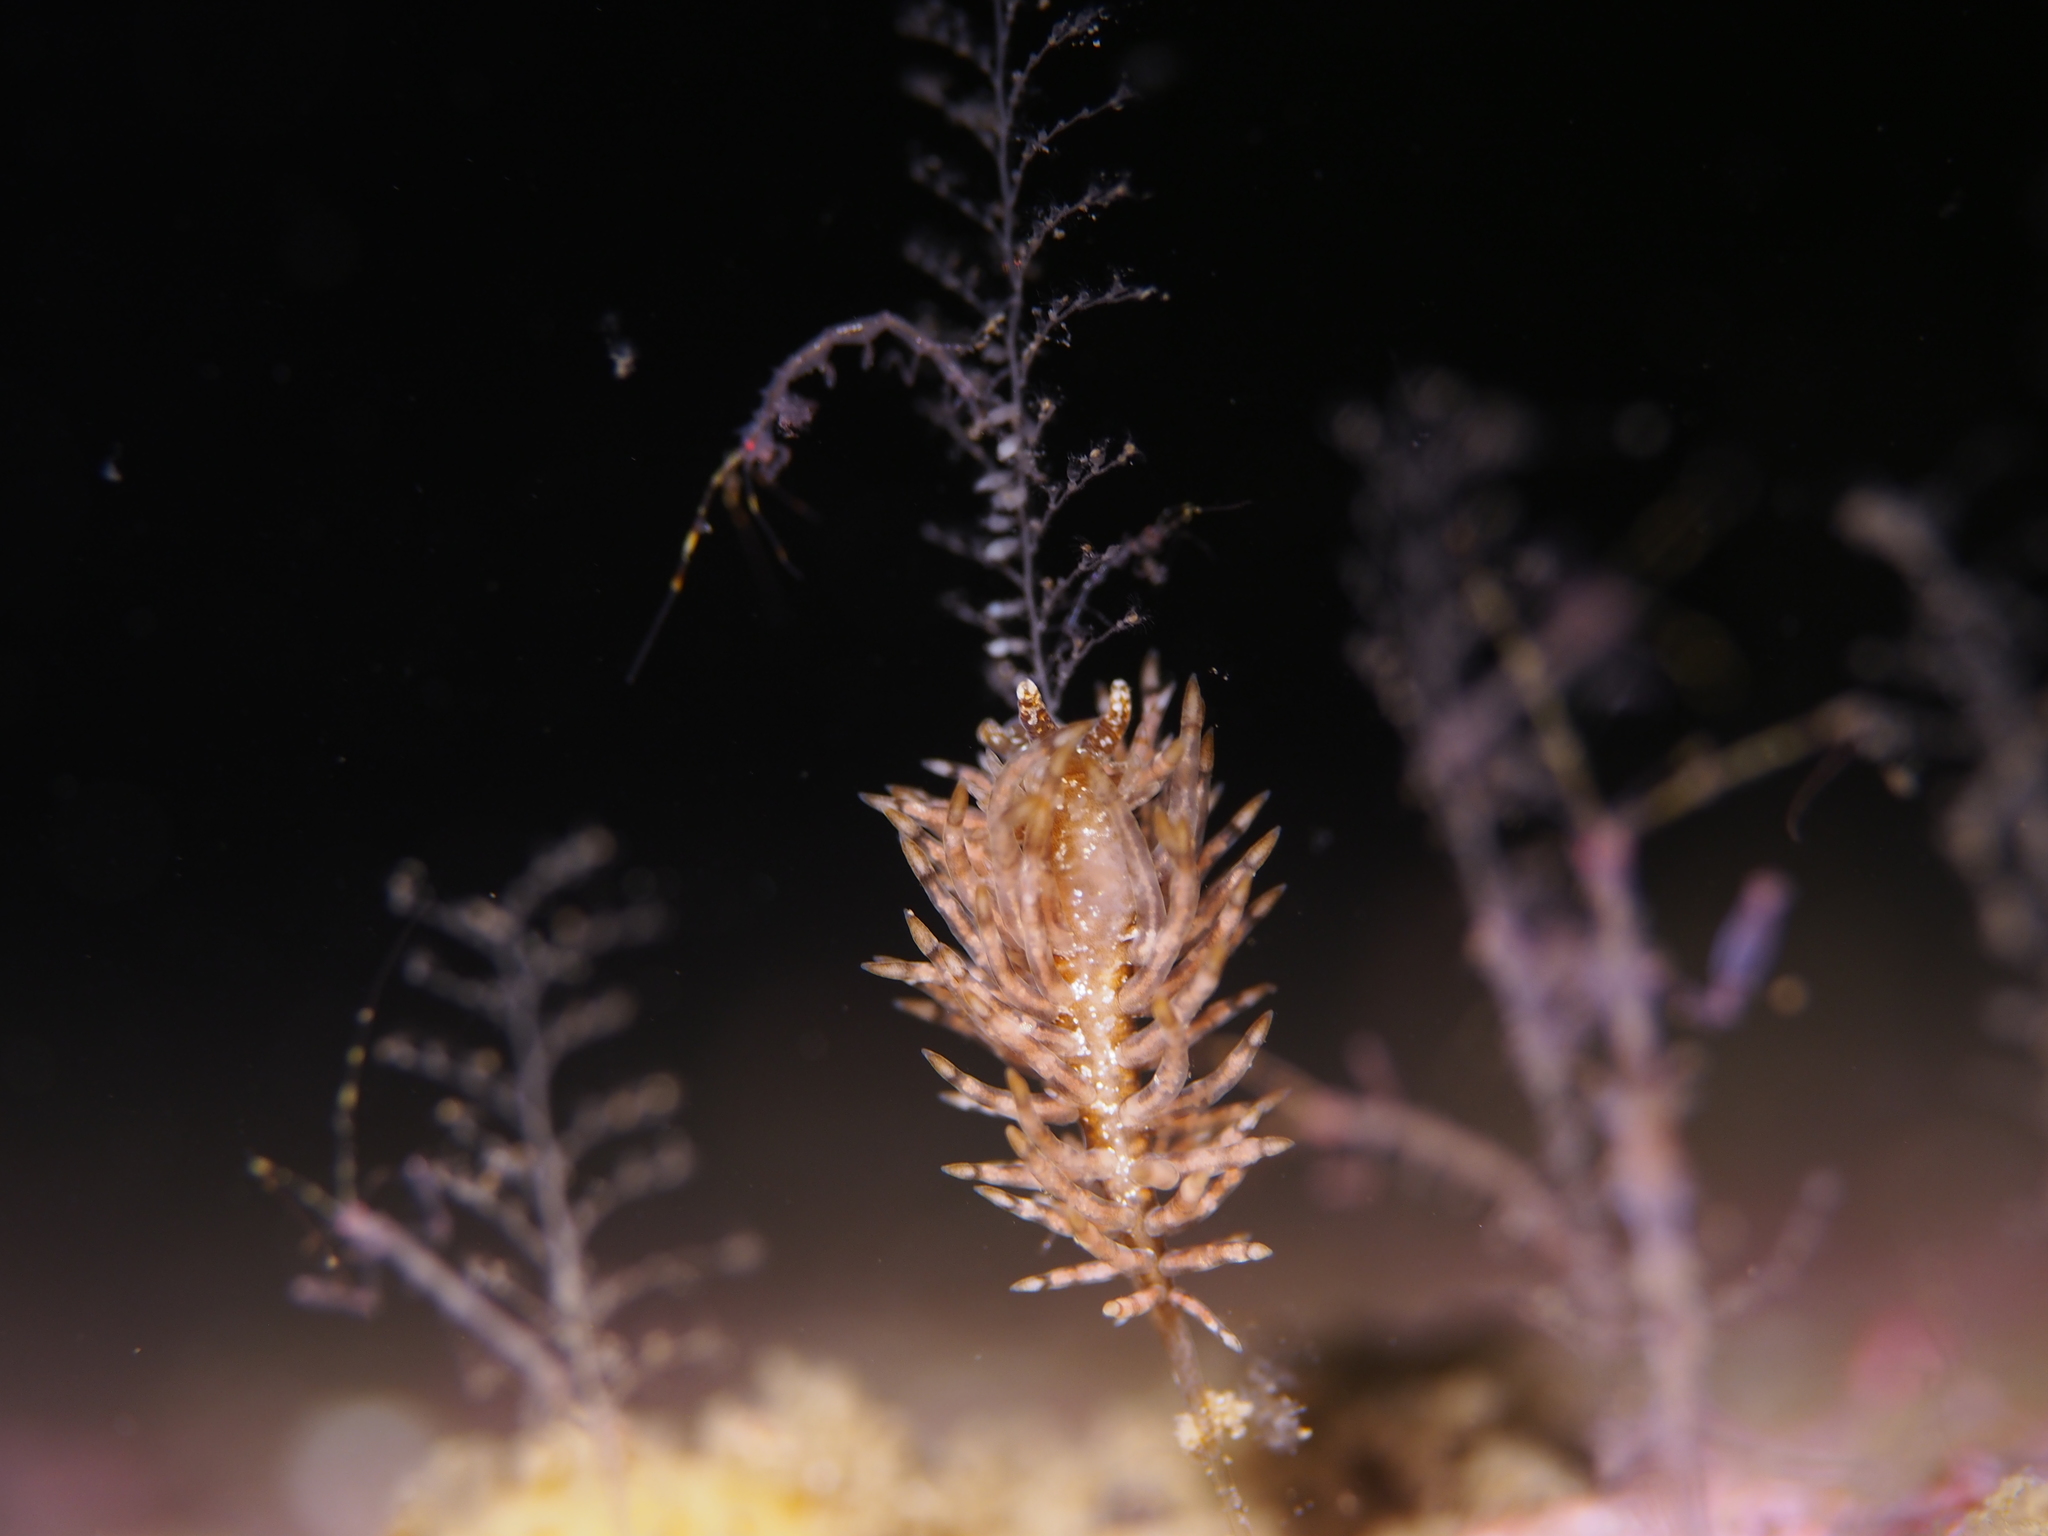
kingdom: Animalia
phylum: Mollusca
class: Gastropoda
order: Nudibranchia
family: Eubranchidae
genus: Eubranchus
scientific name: Eubranchus vittatus
